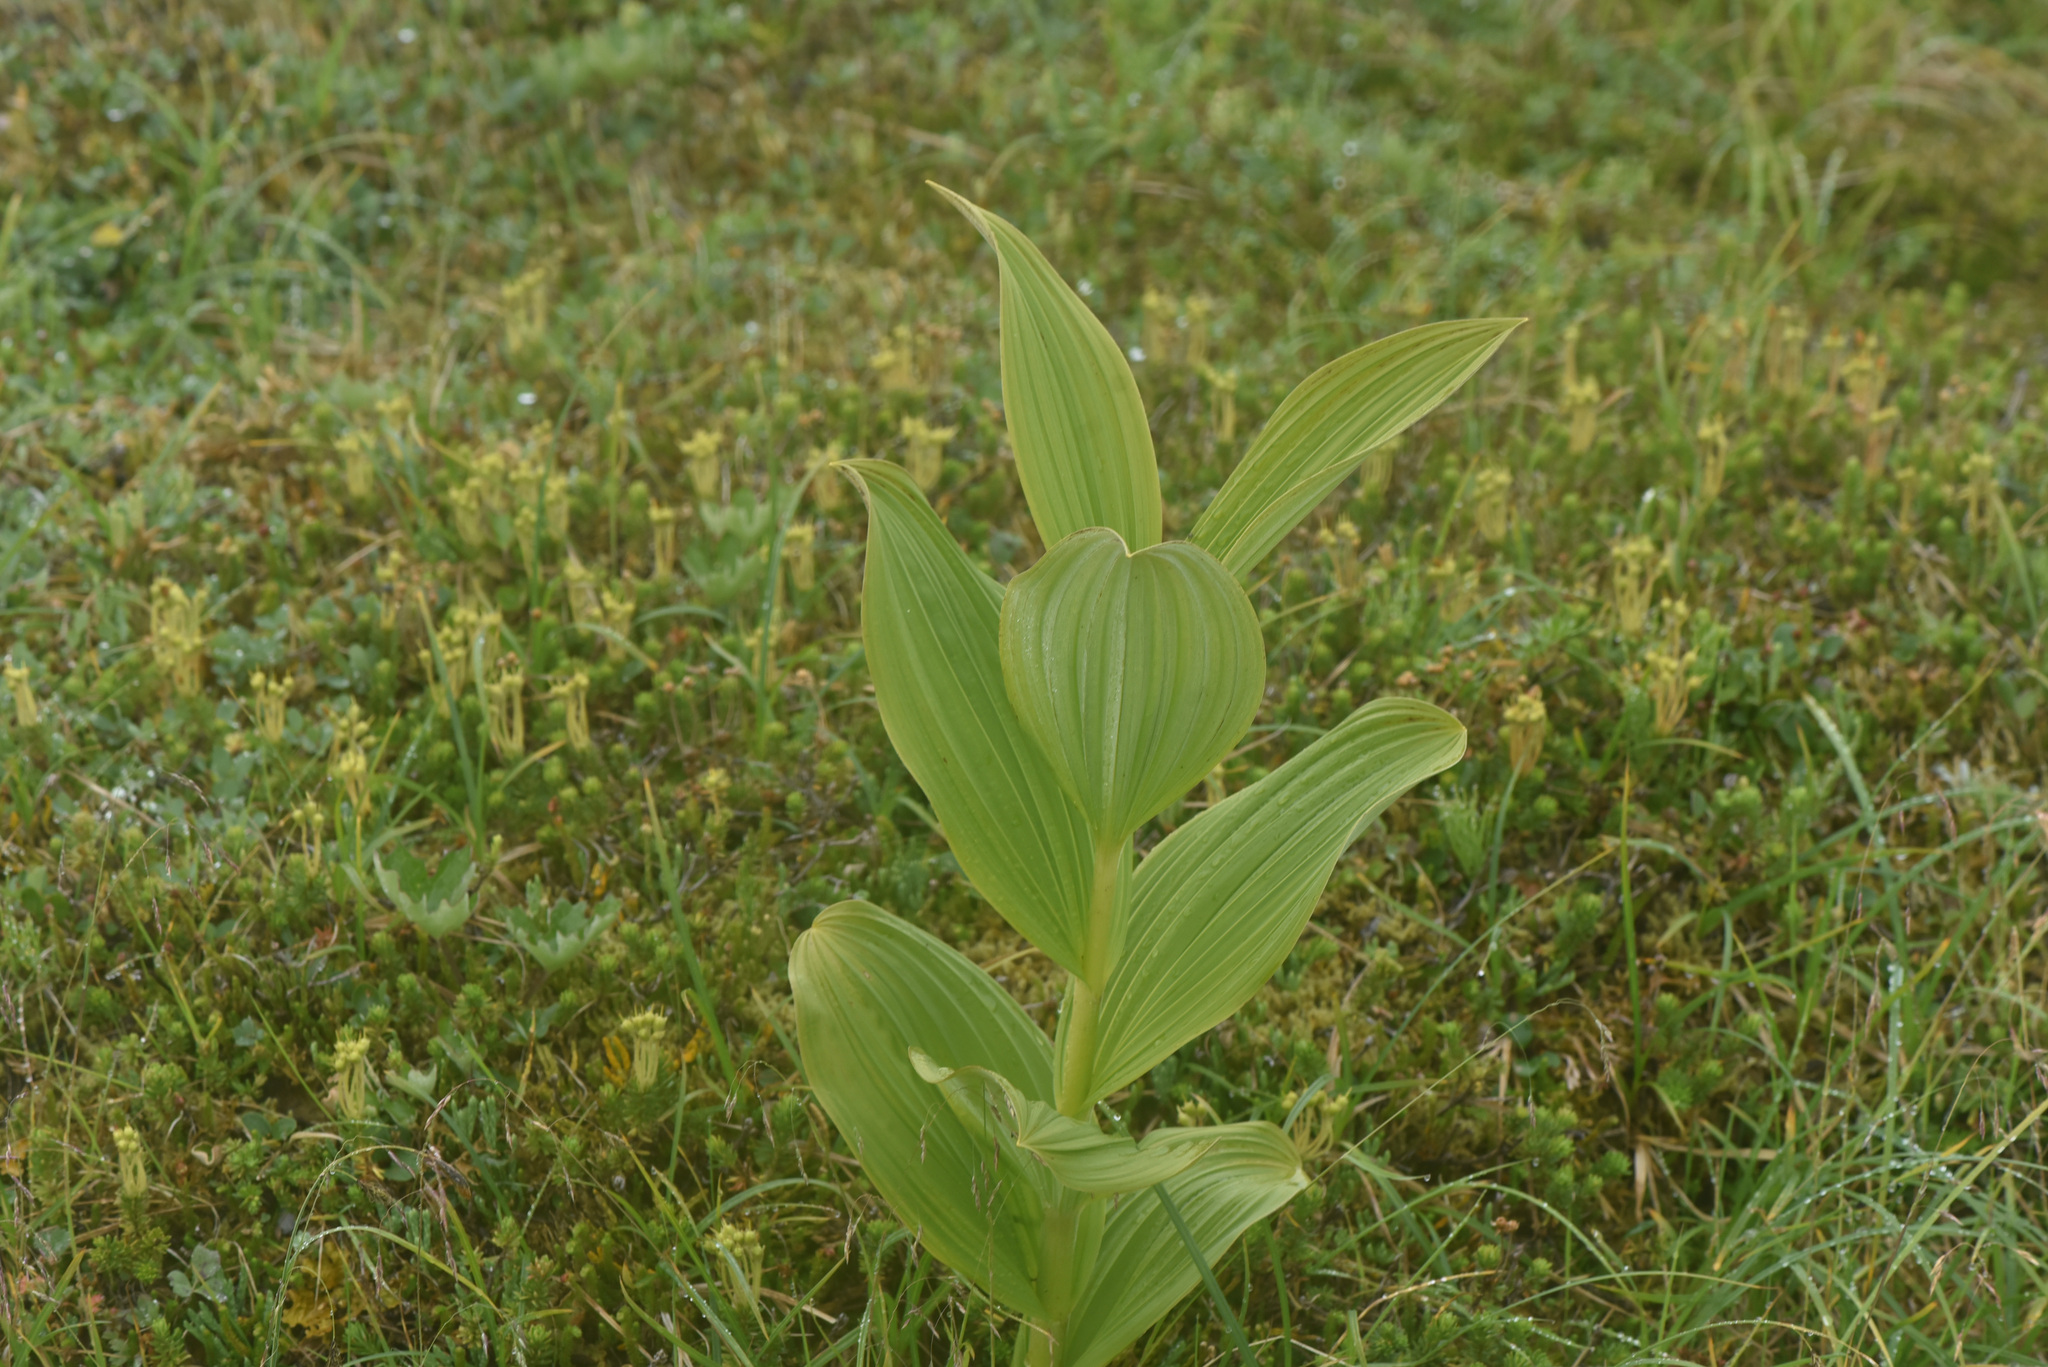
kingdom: Plantae
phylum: Tracheophyta
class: Liliopsida
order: Liliales
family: Melanthiaceae
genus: Veratrum
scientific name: Veratrum viride
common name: American false hellebore
